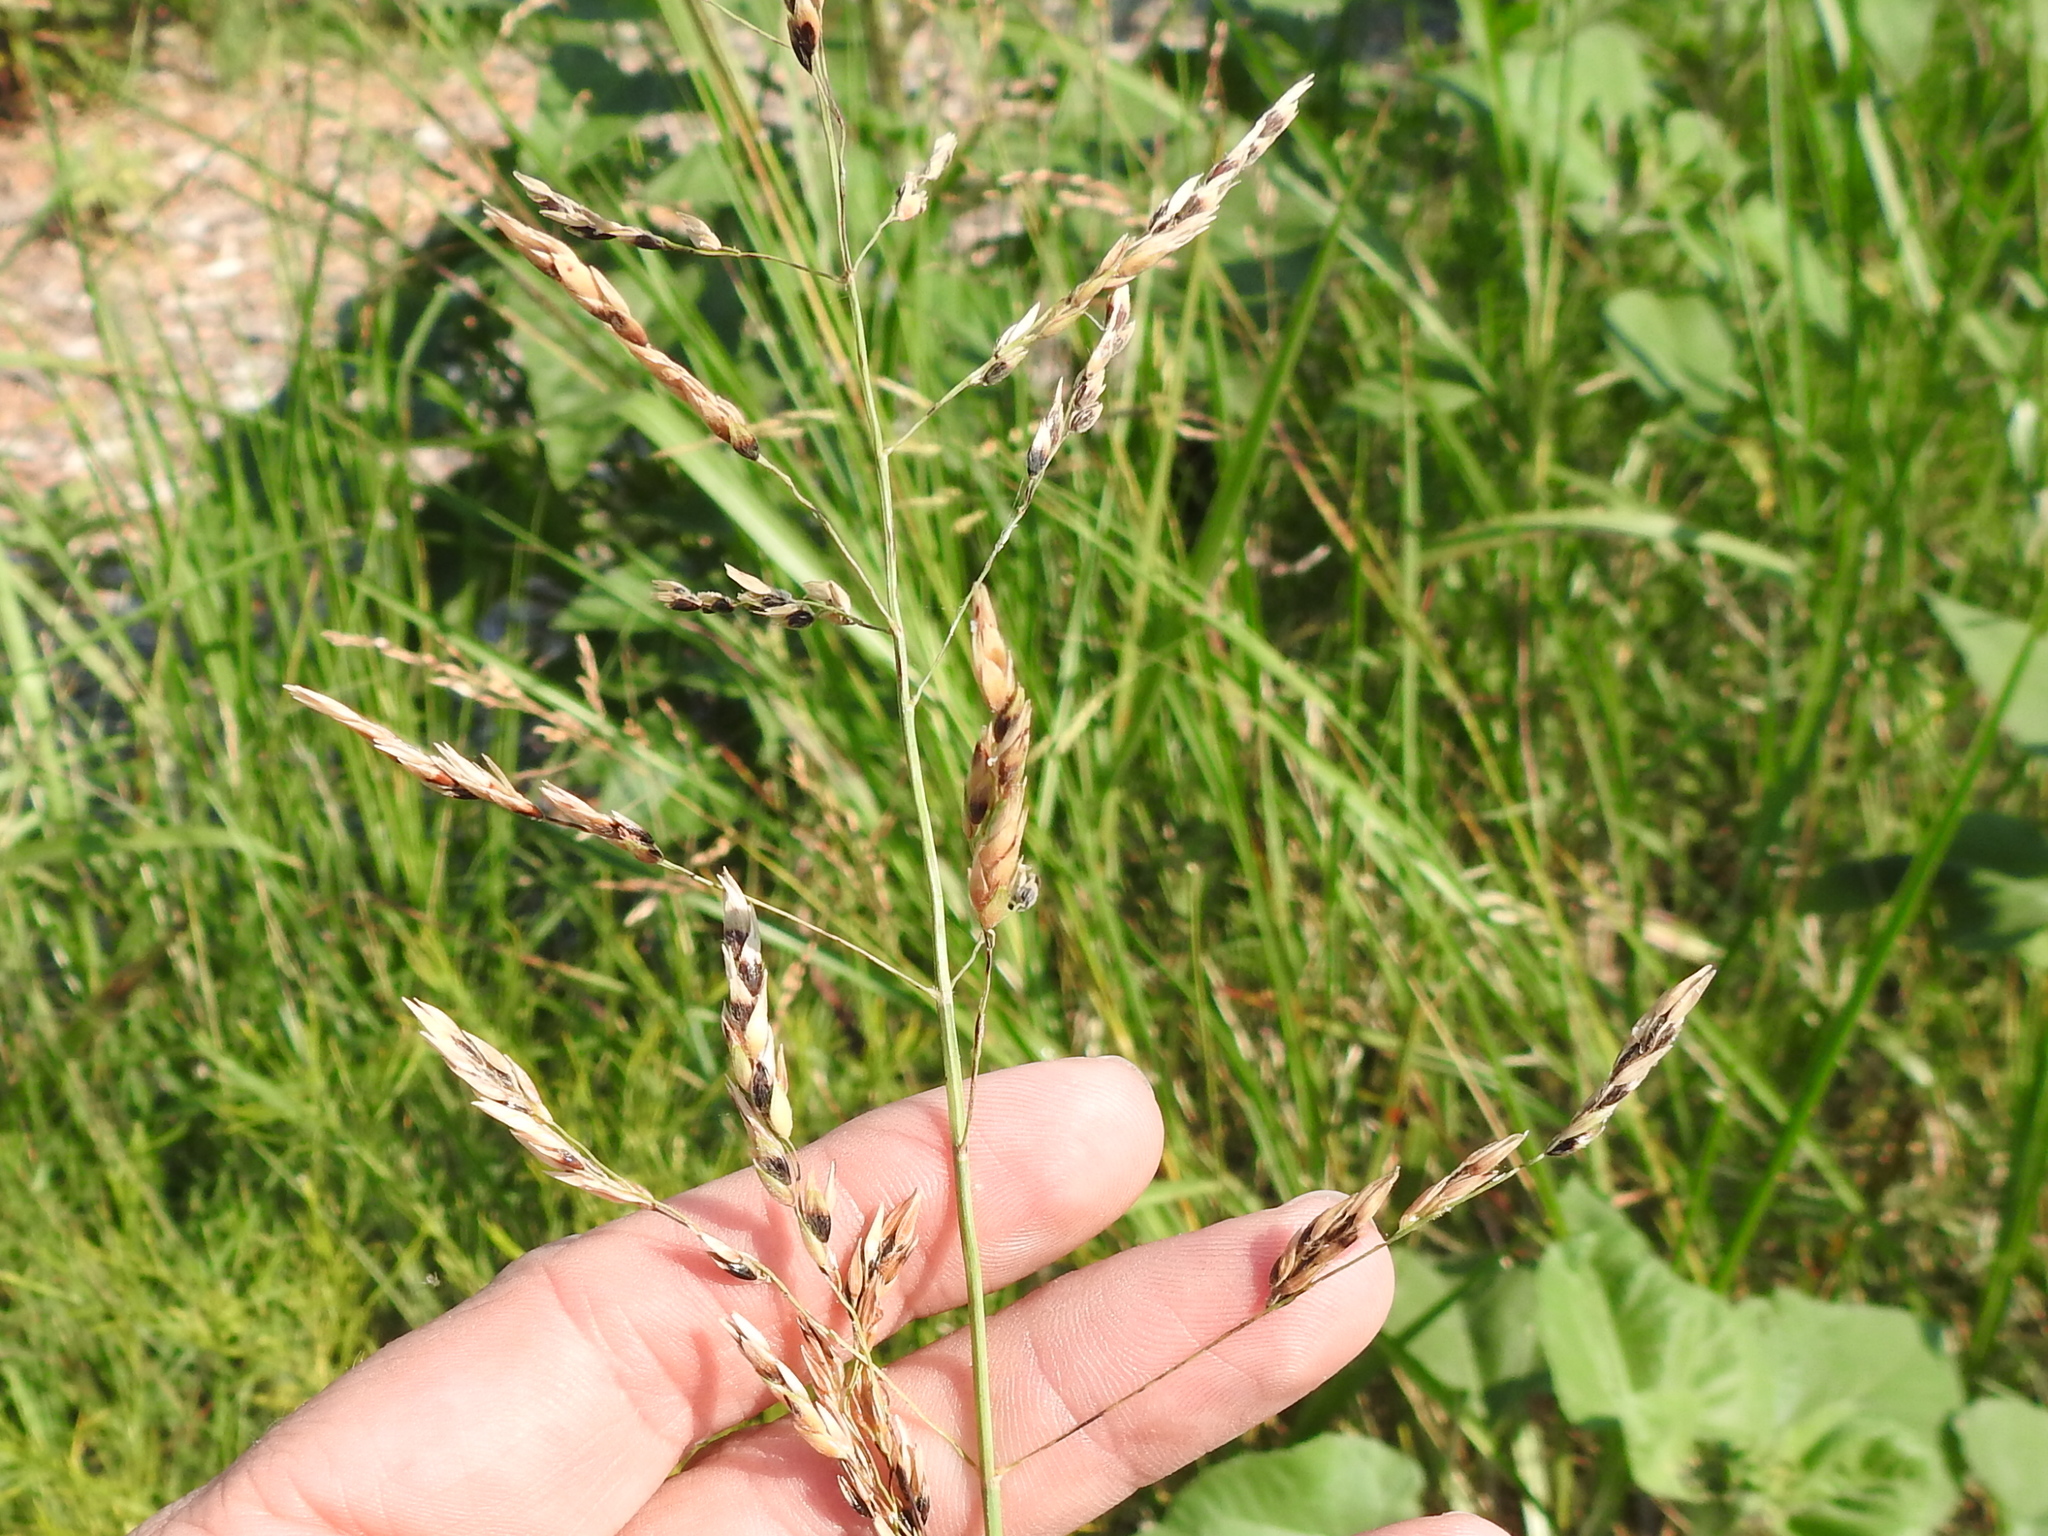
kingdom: Plantae
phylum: Tracheophyta
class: Liliopsida
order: Poales
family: Poaceae
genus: Sorghum
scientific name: Sorghum halepense
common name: Johnson-grass
